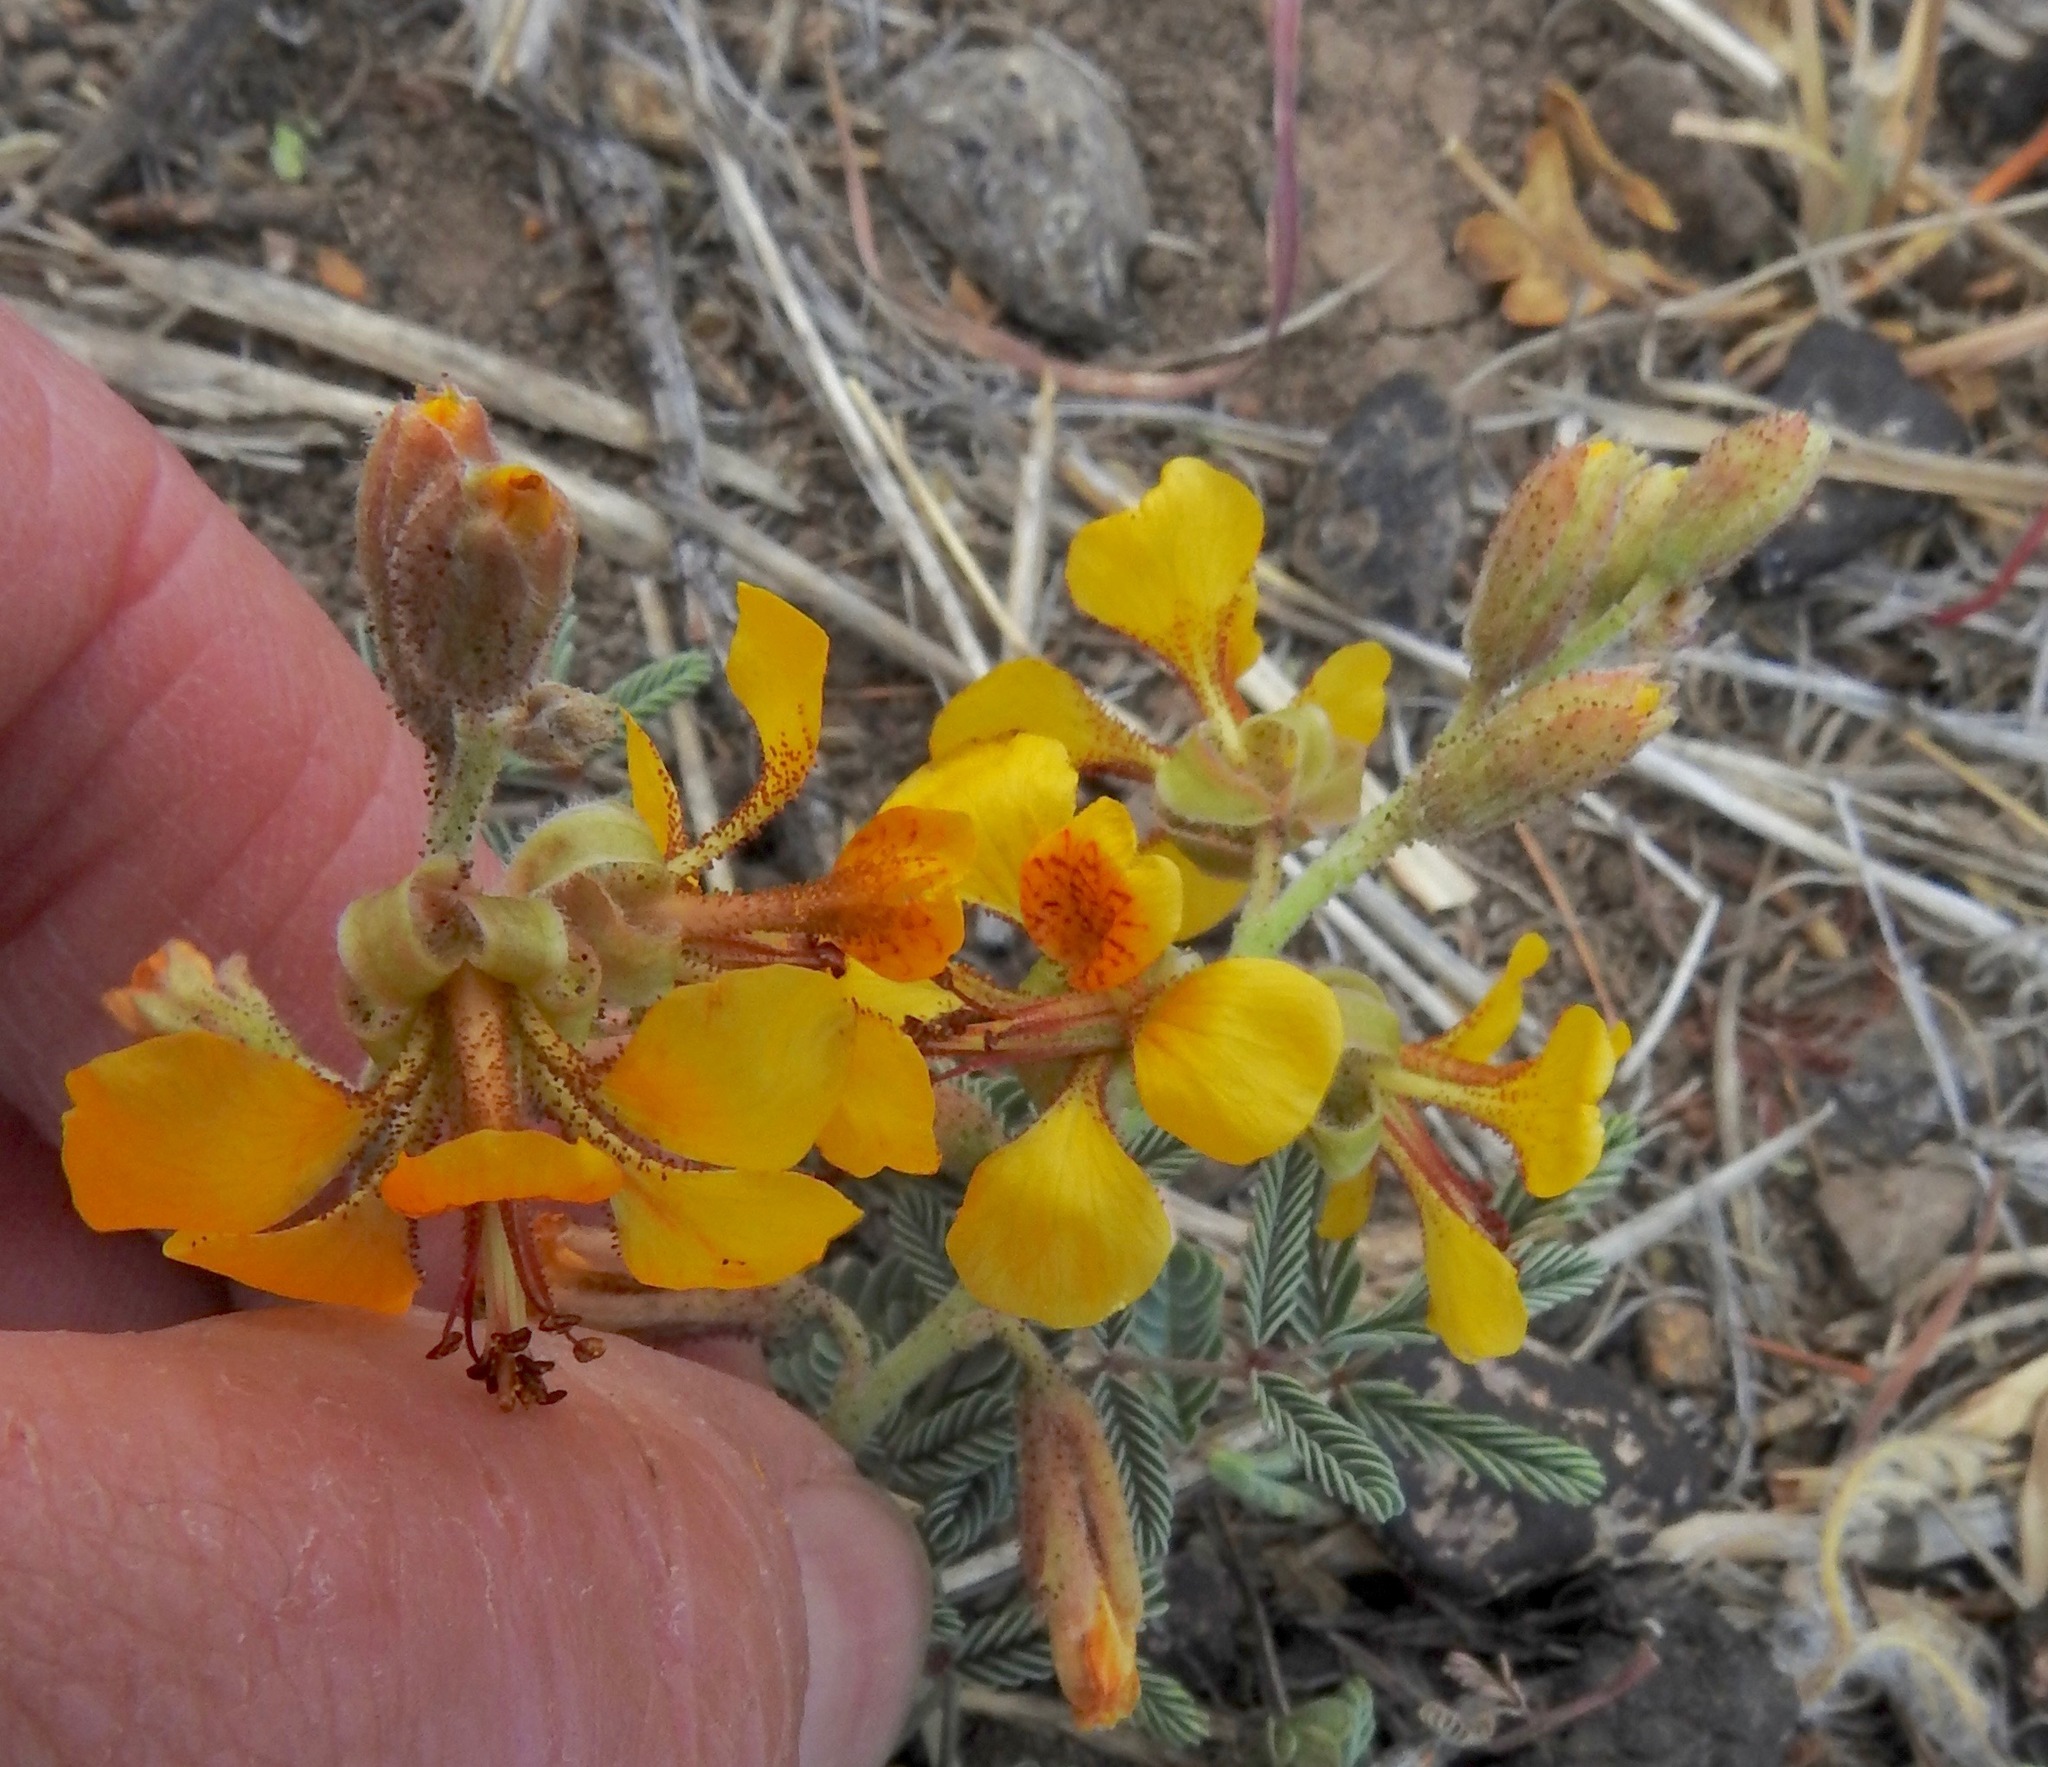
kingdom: Plantae
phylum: Tracheophyta
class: Magnoliopsida
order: Fabales
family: Fabaceae
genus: Hoffmannseggia
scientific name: Hoffmannseggia glauca
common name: Pignut
